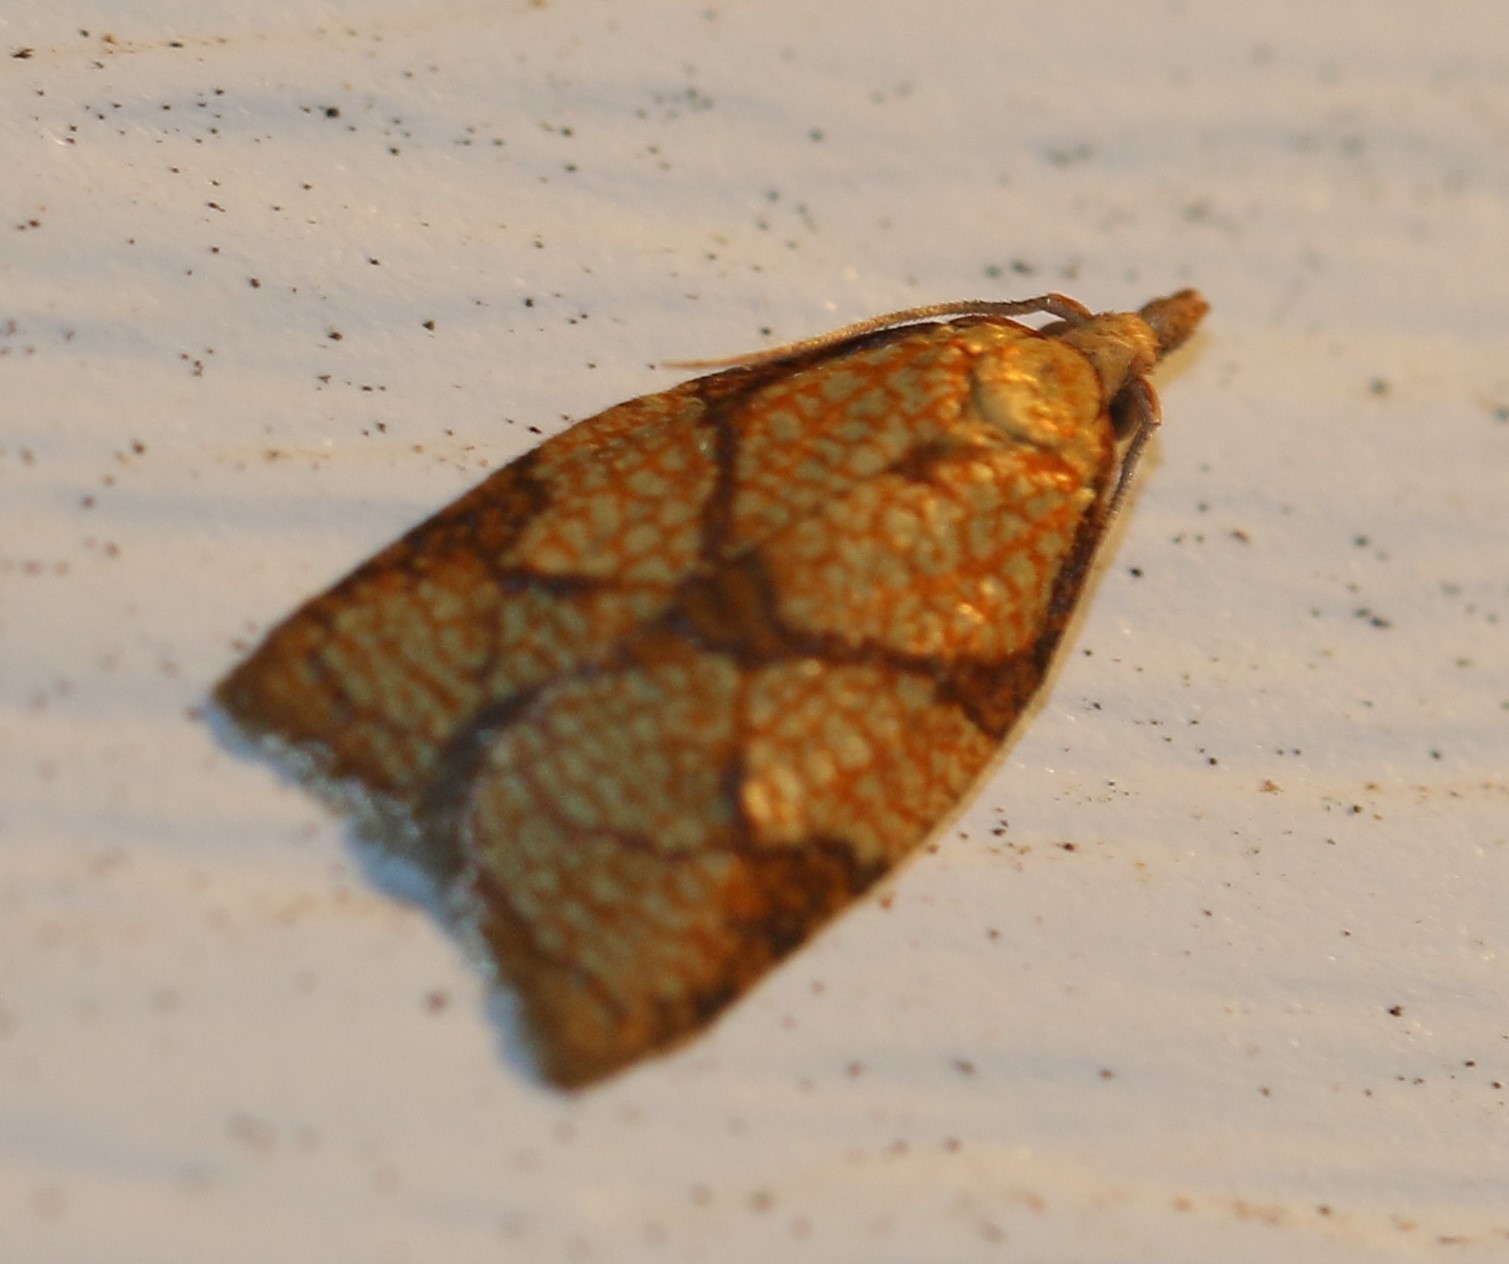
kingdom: Animalia
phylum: Arthropoda
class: Insecta
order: Lepidoptera
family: Tortricidae
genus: Cenopis
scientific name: Cenopis reticulatana
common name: Reticulated fruitworm moth
